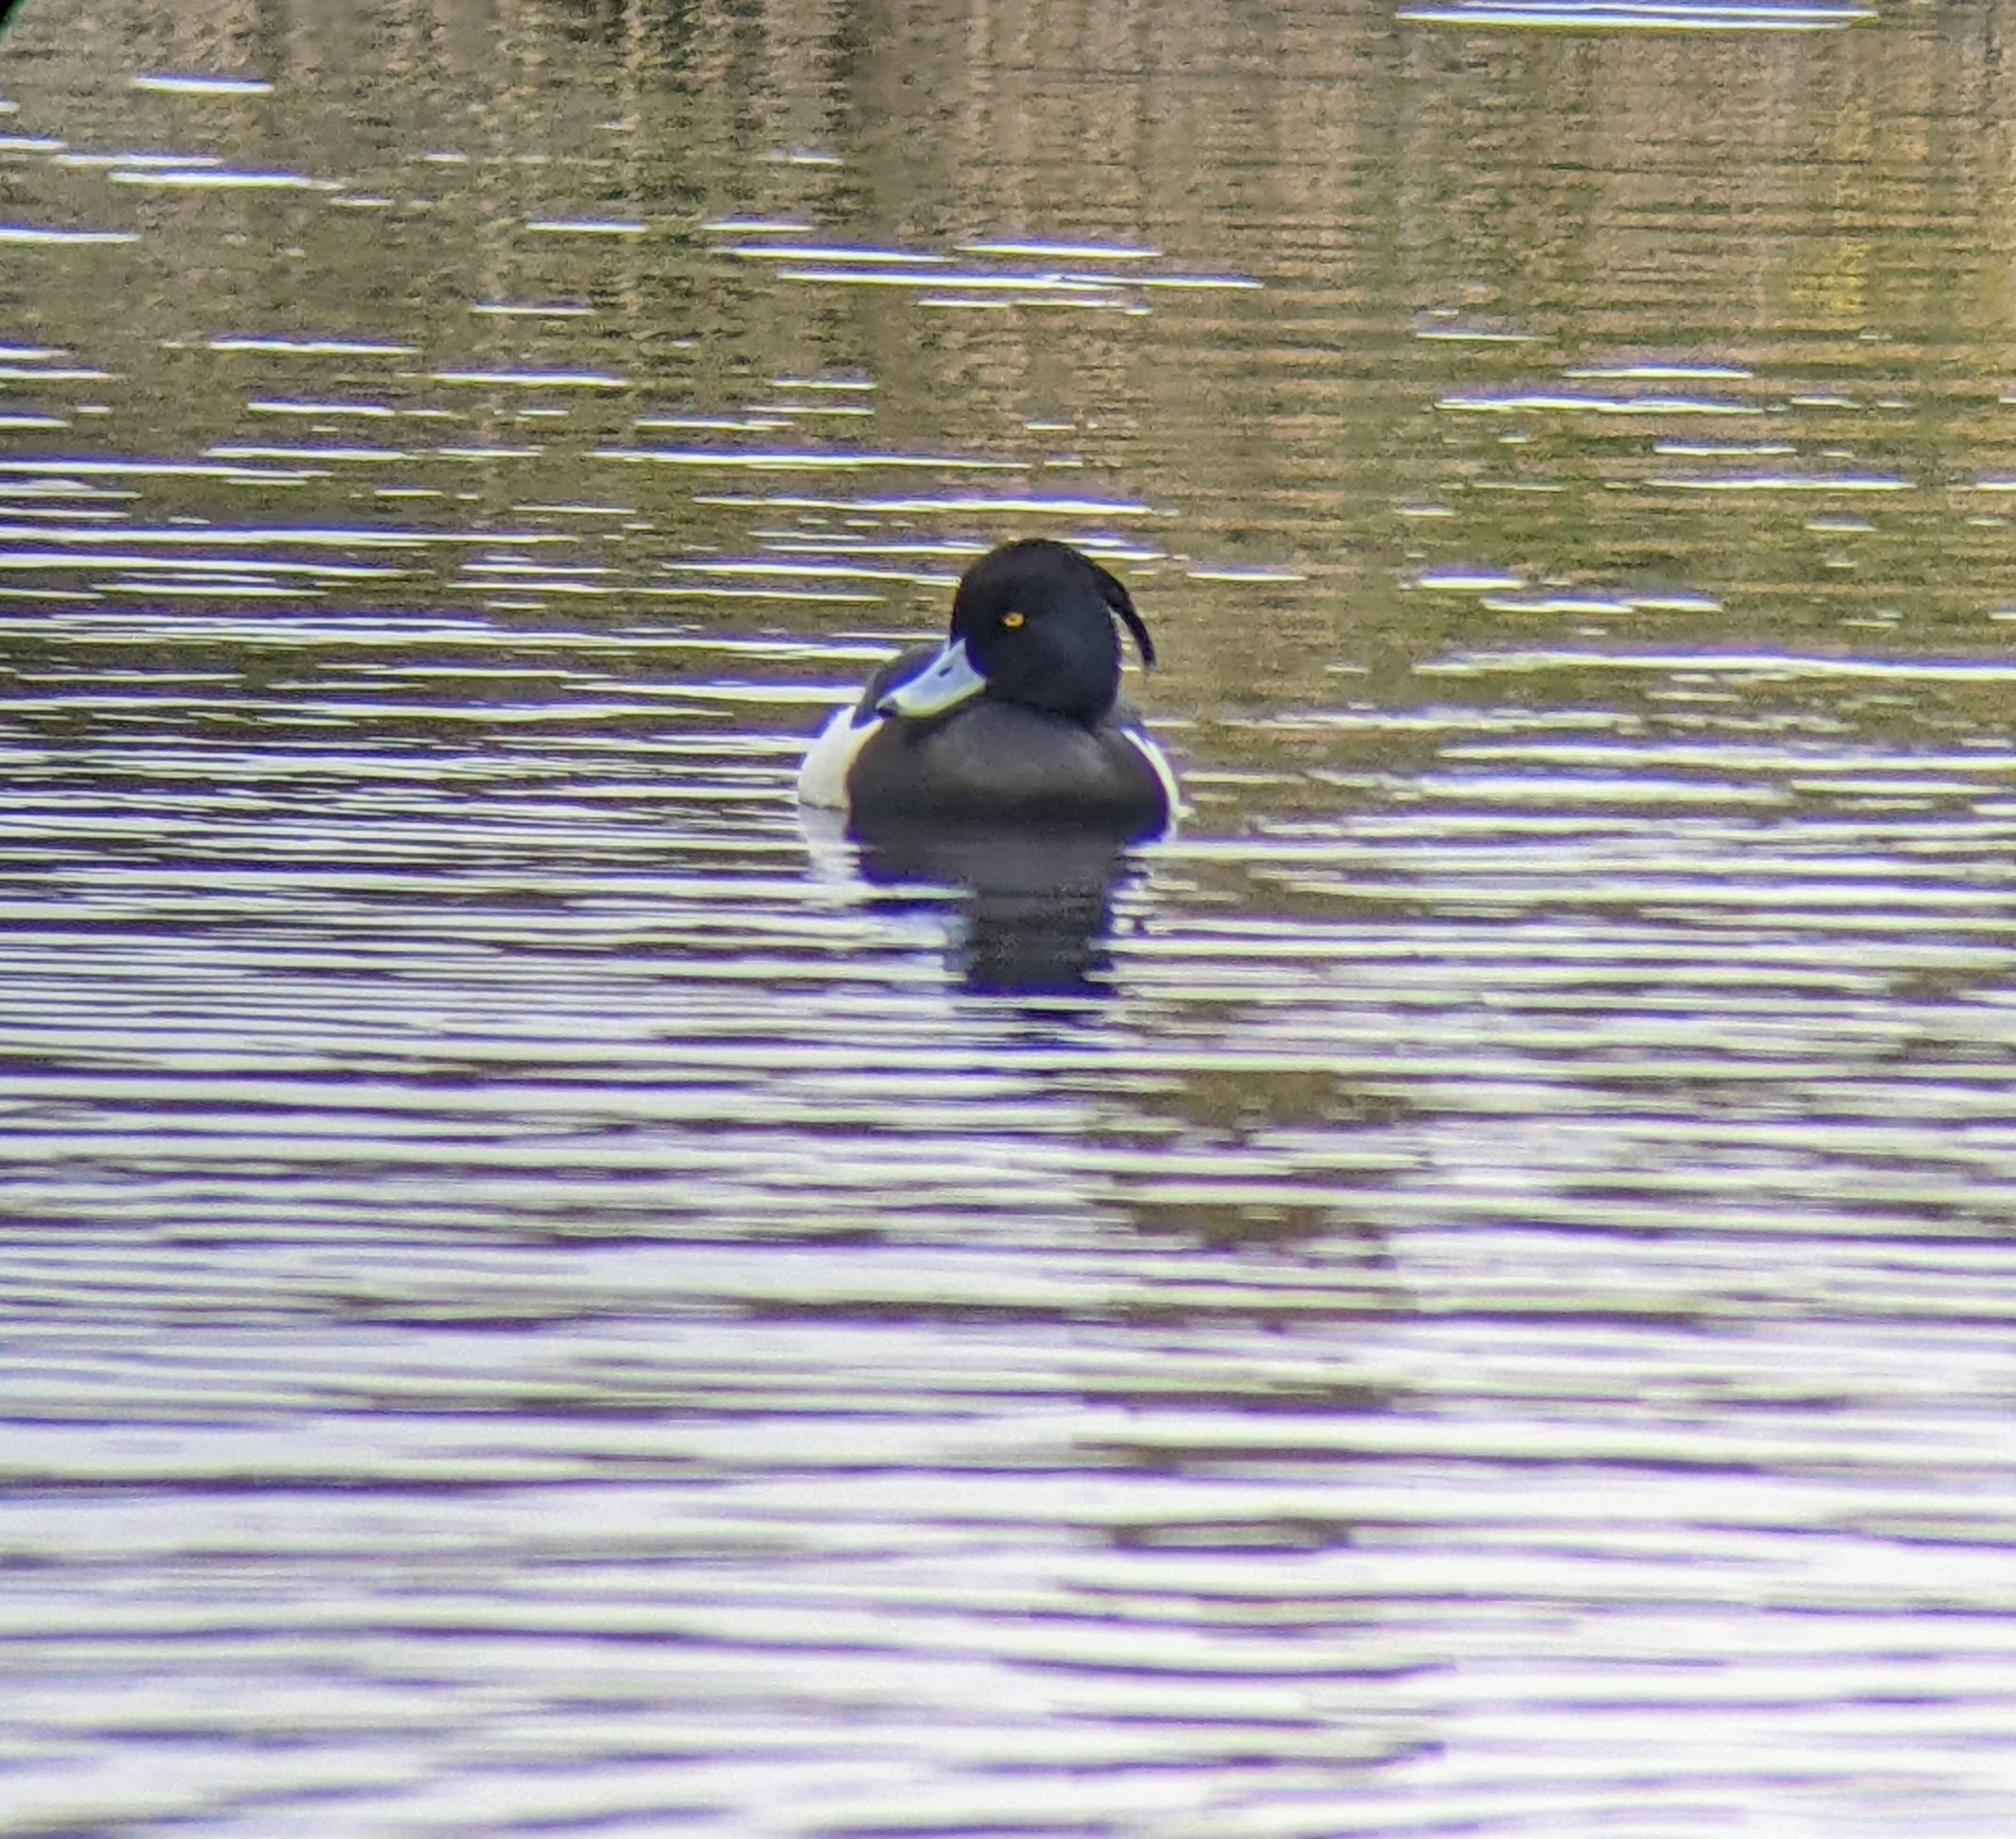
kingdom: Animalia
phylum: Chordata
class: Aves
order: Anseriformes
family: Anatidae
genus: Aythya
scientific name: Aythya fuligula
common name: Tufted duck
